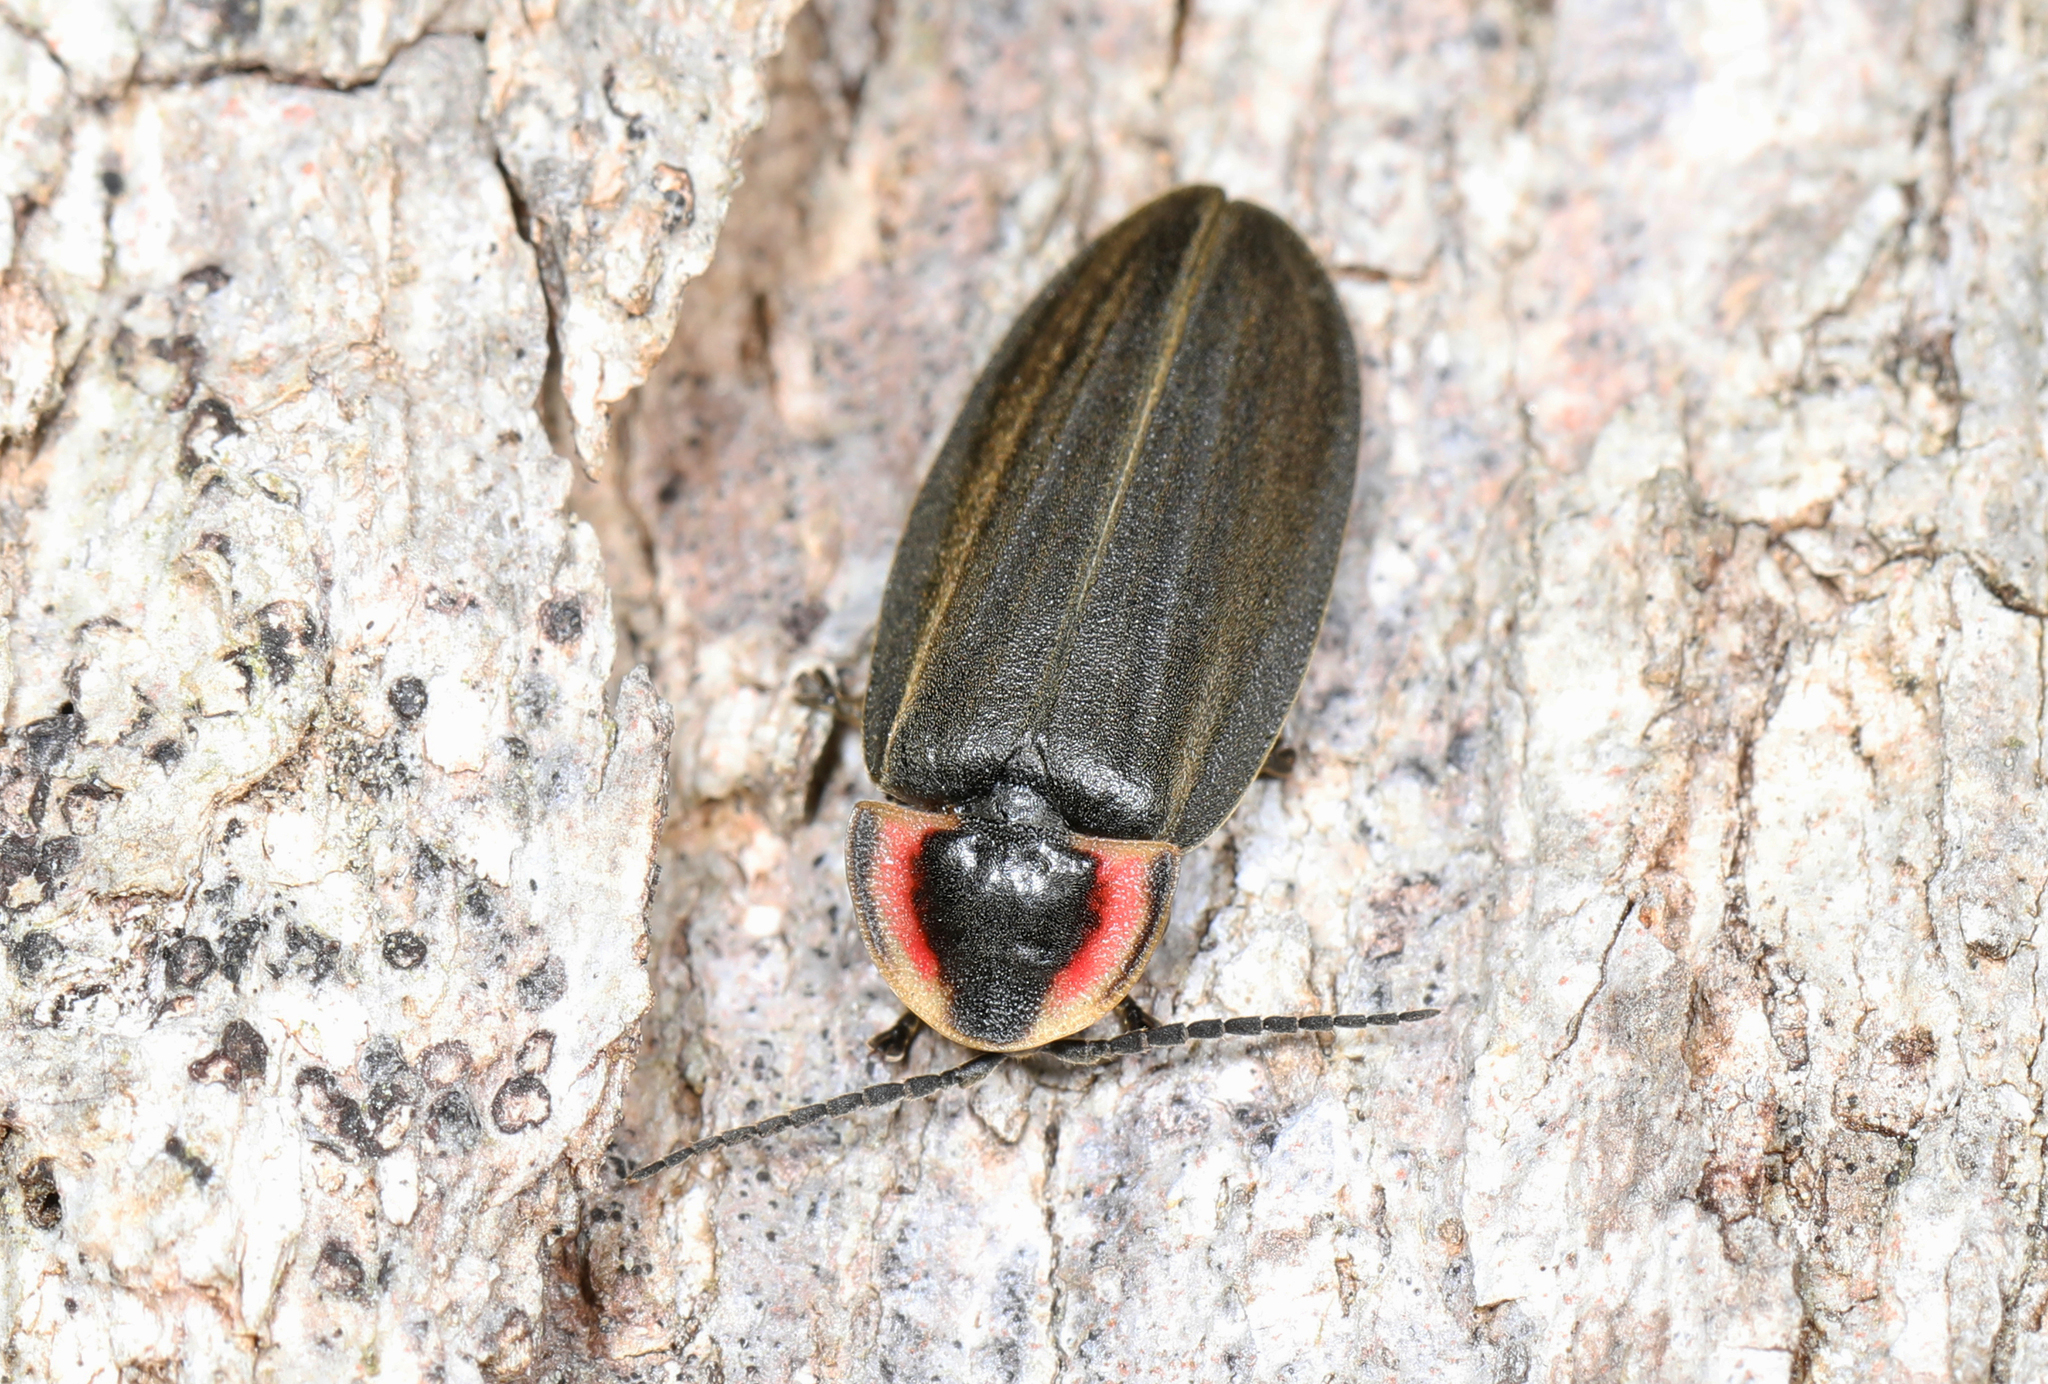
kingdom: Animalia
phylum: Arthropoda
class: Insecta
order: Coleoptera
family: Lampyridae
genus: Photinus
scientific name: Photinus corrusca
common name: Winter firefly
